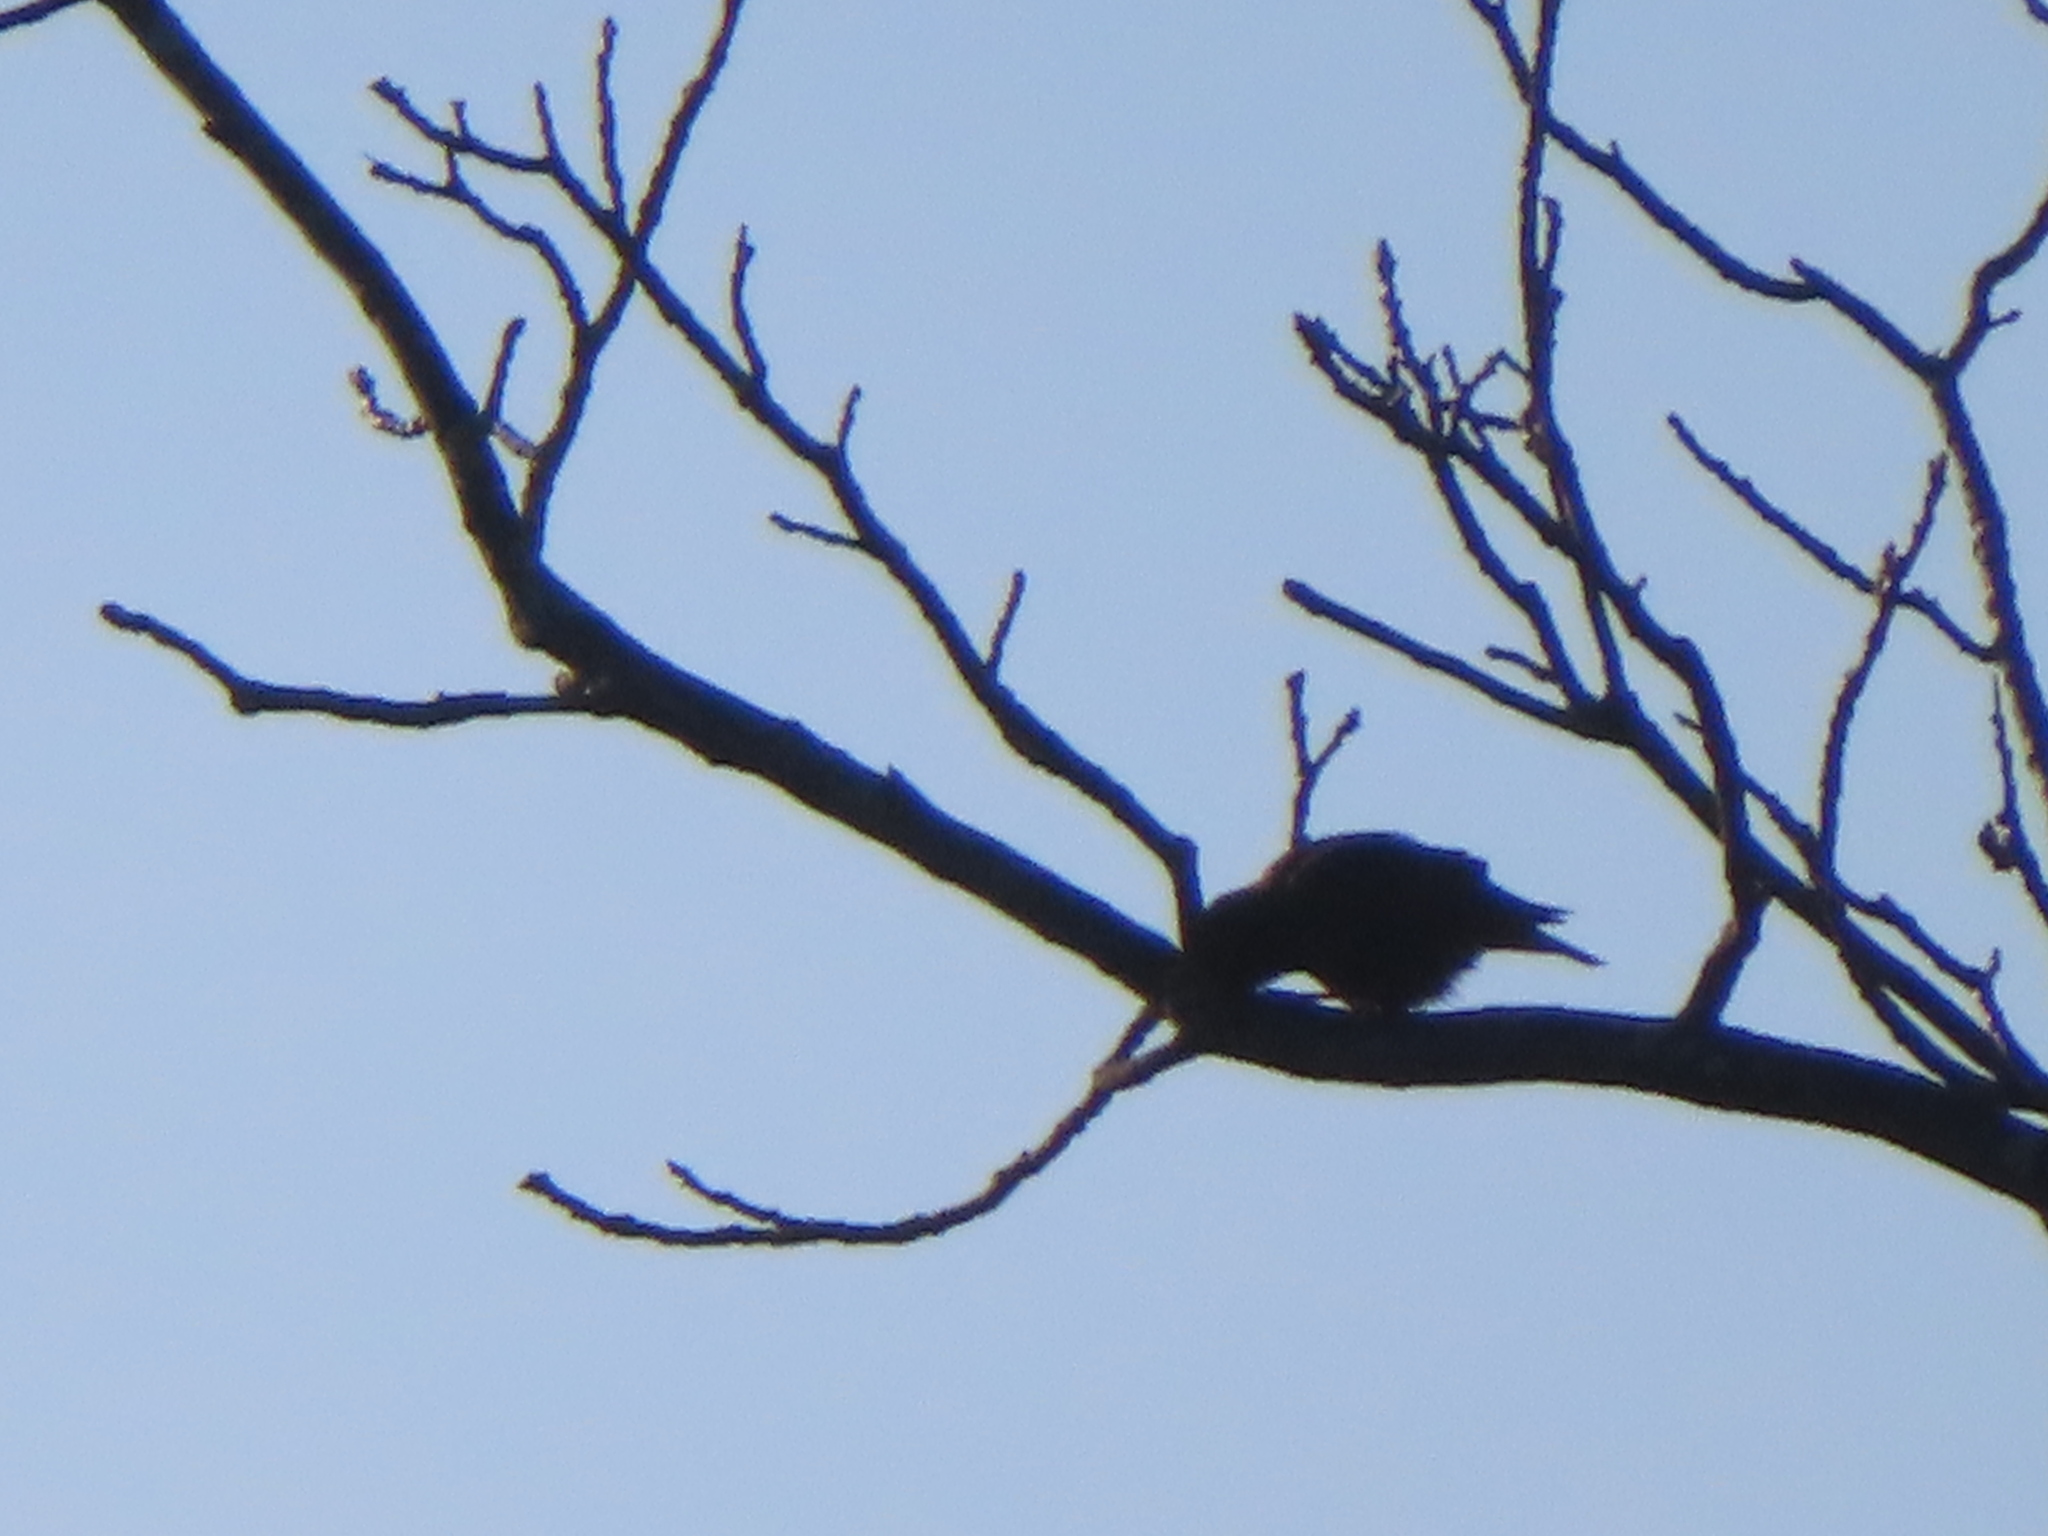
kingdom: Animalia
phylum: Chordata
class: Aves
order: Passeriformes
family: Sturnidae
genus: Sturnus
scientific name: Sturnus vulgaris
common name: Common starling
